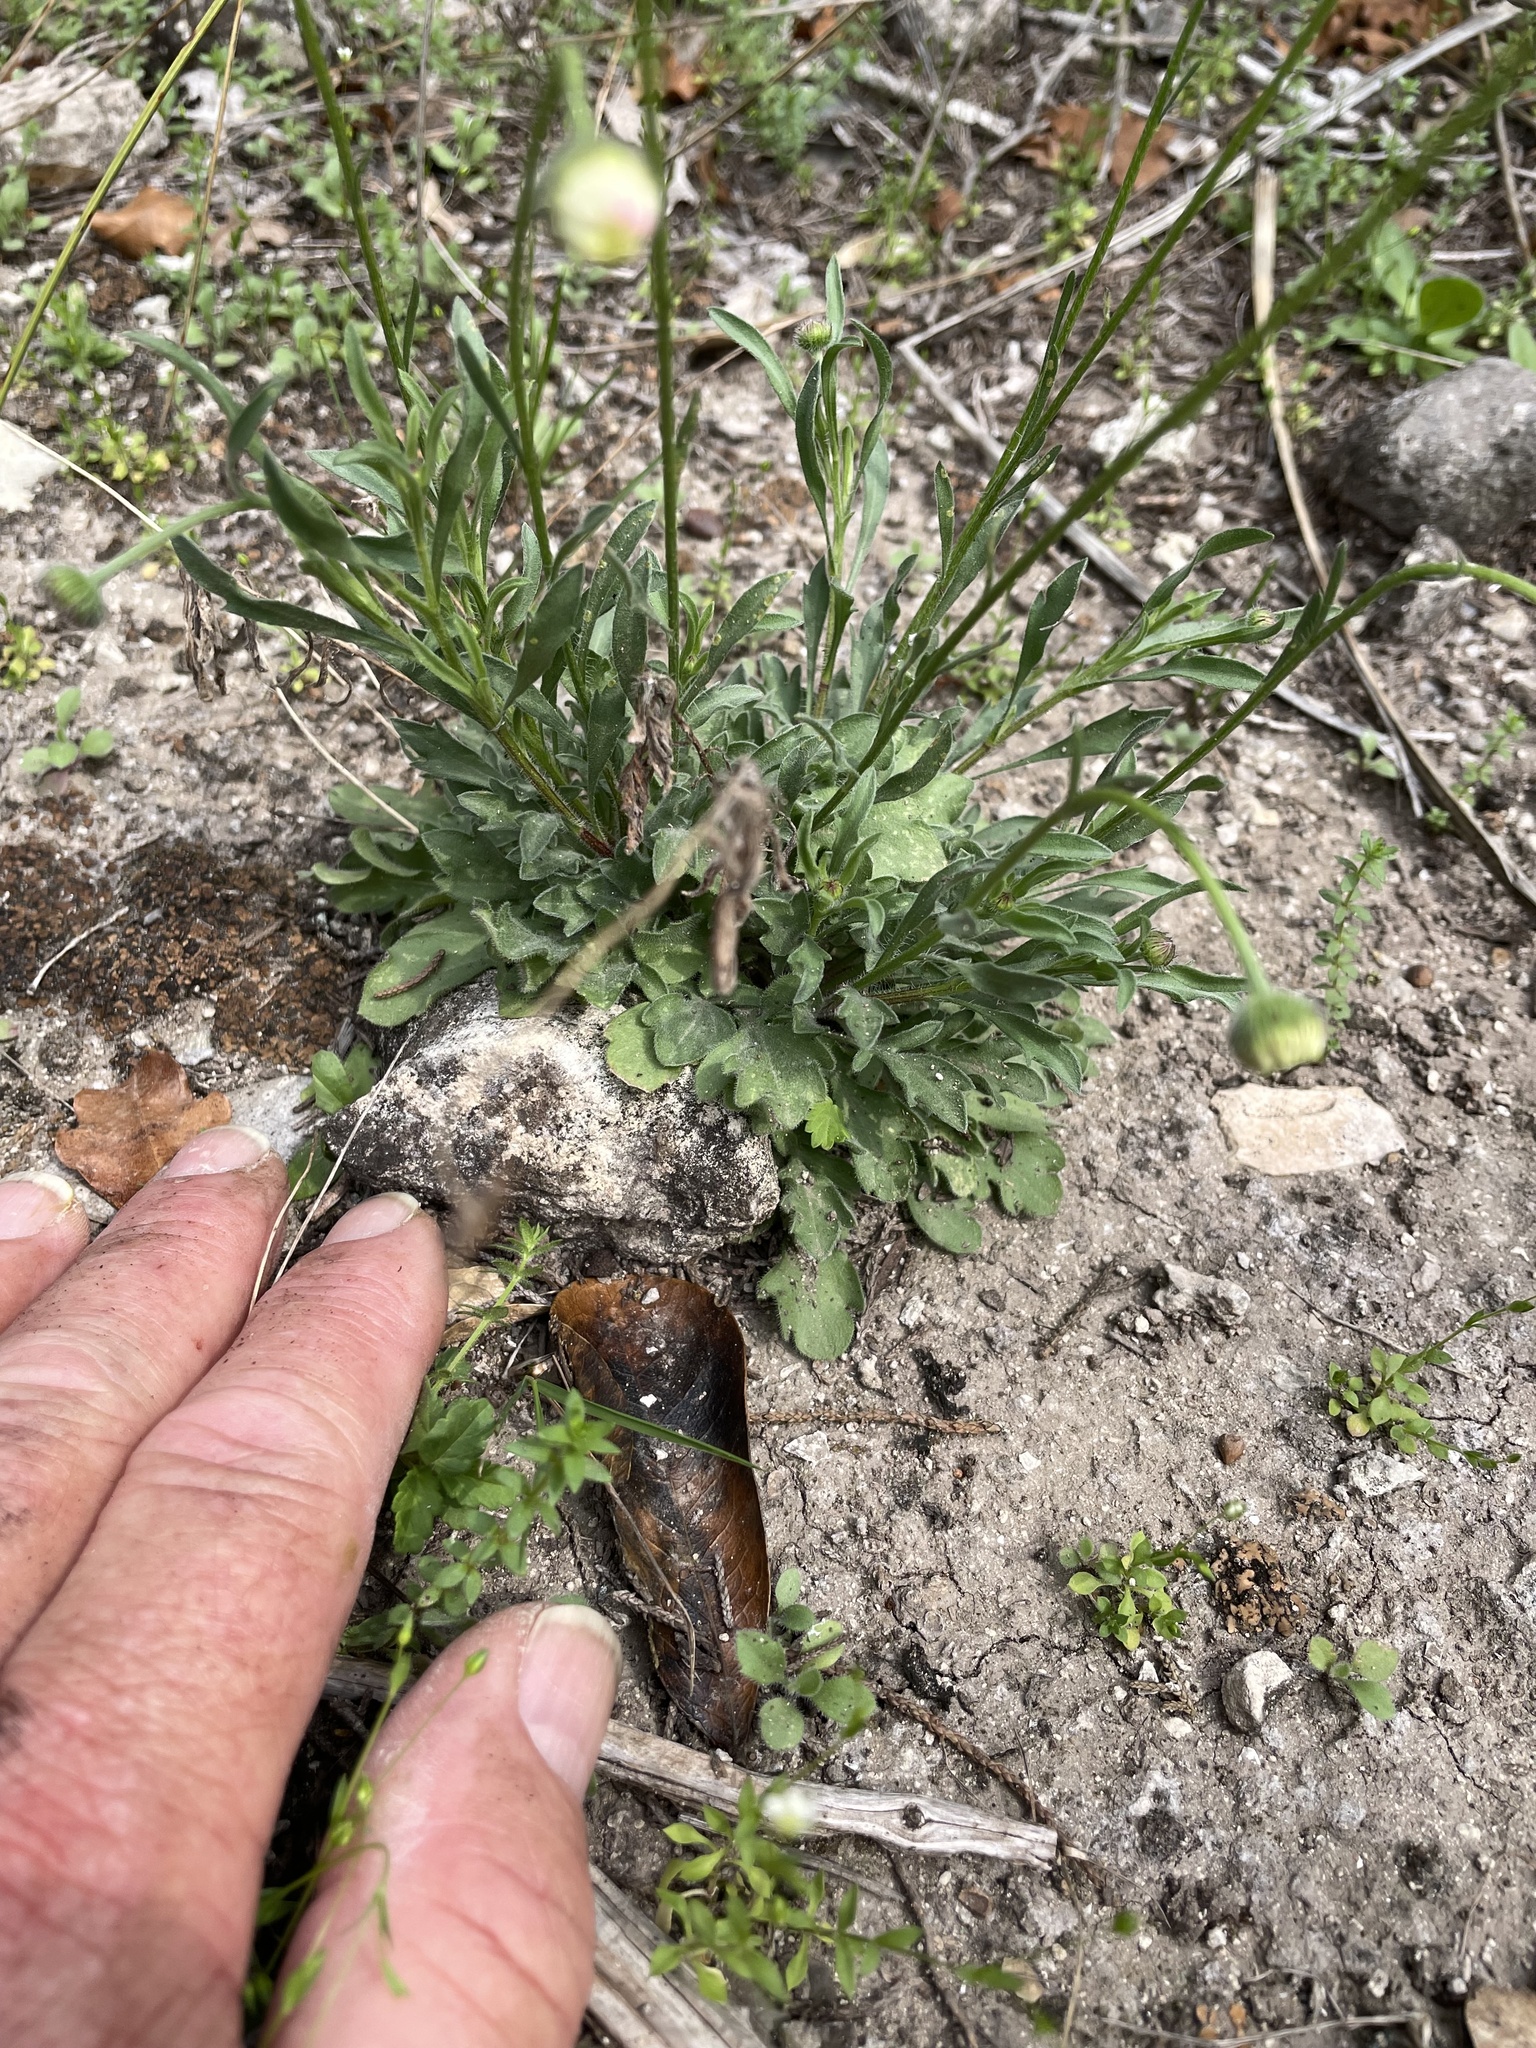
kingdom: Plantae
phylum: Tracheophyta
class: Magnoliopsida
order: Asterales
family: Asteraceae
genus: Erigeron
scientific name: Erigeron modestus
